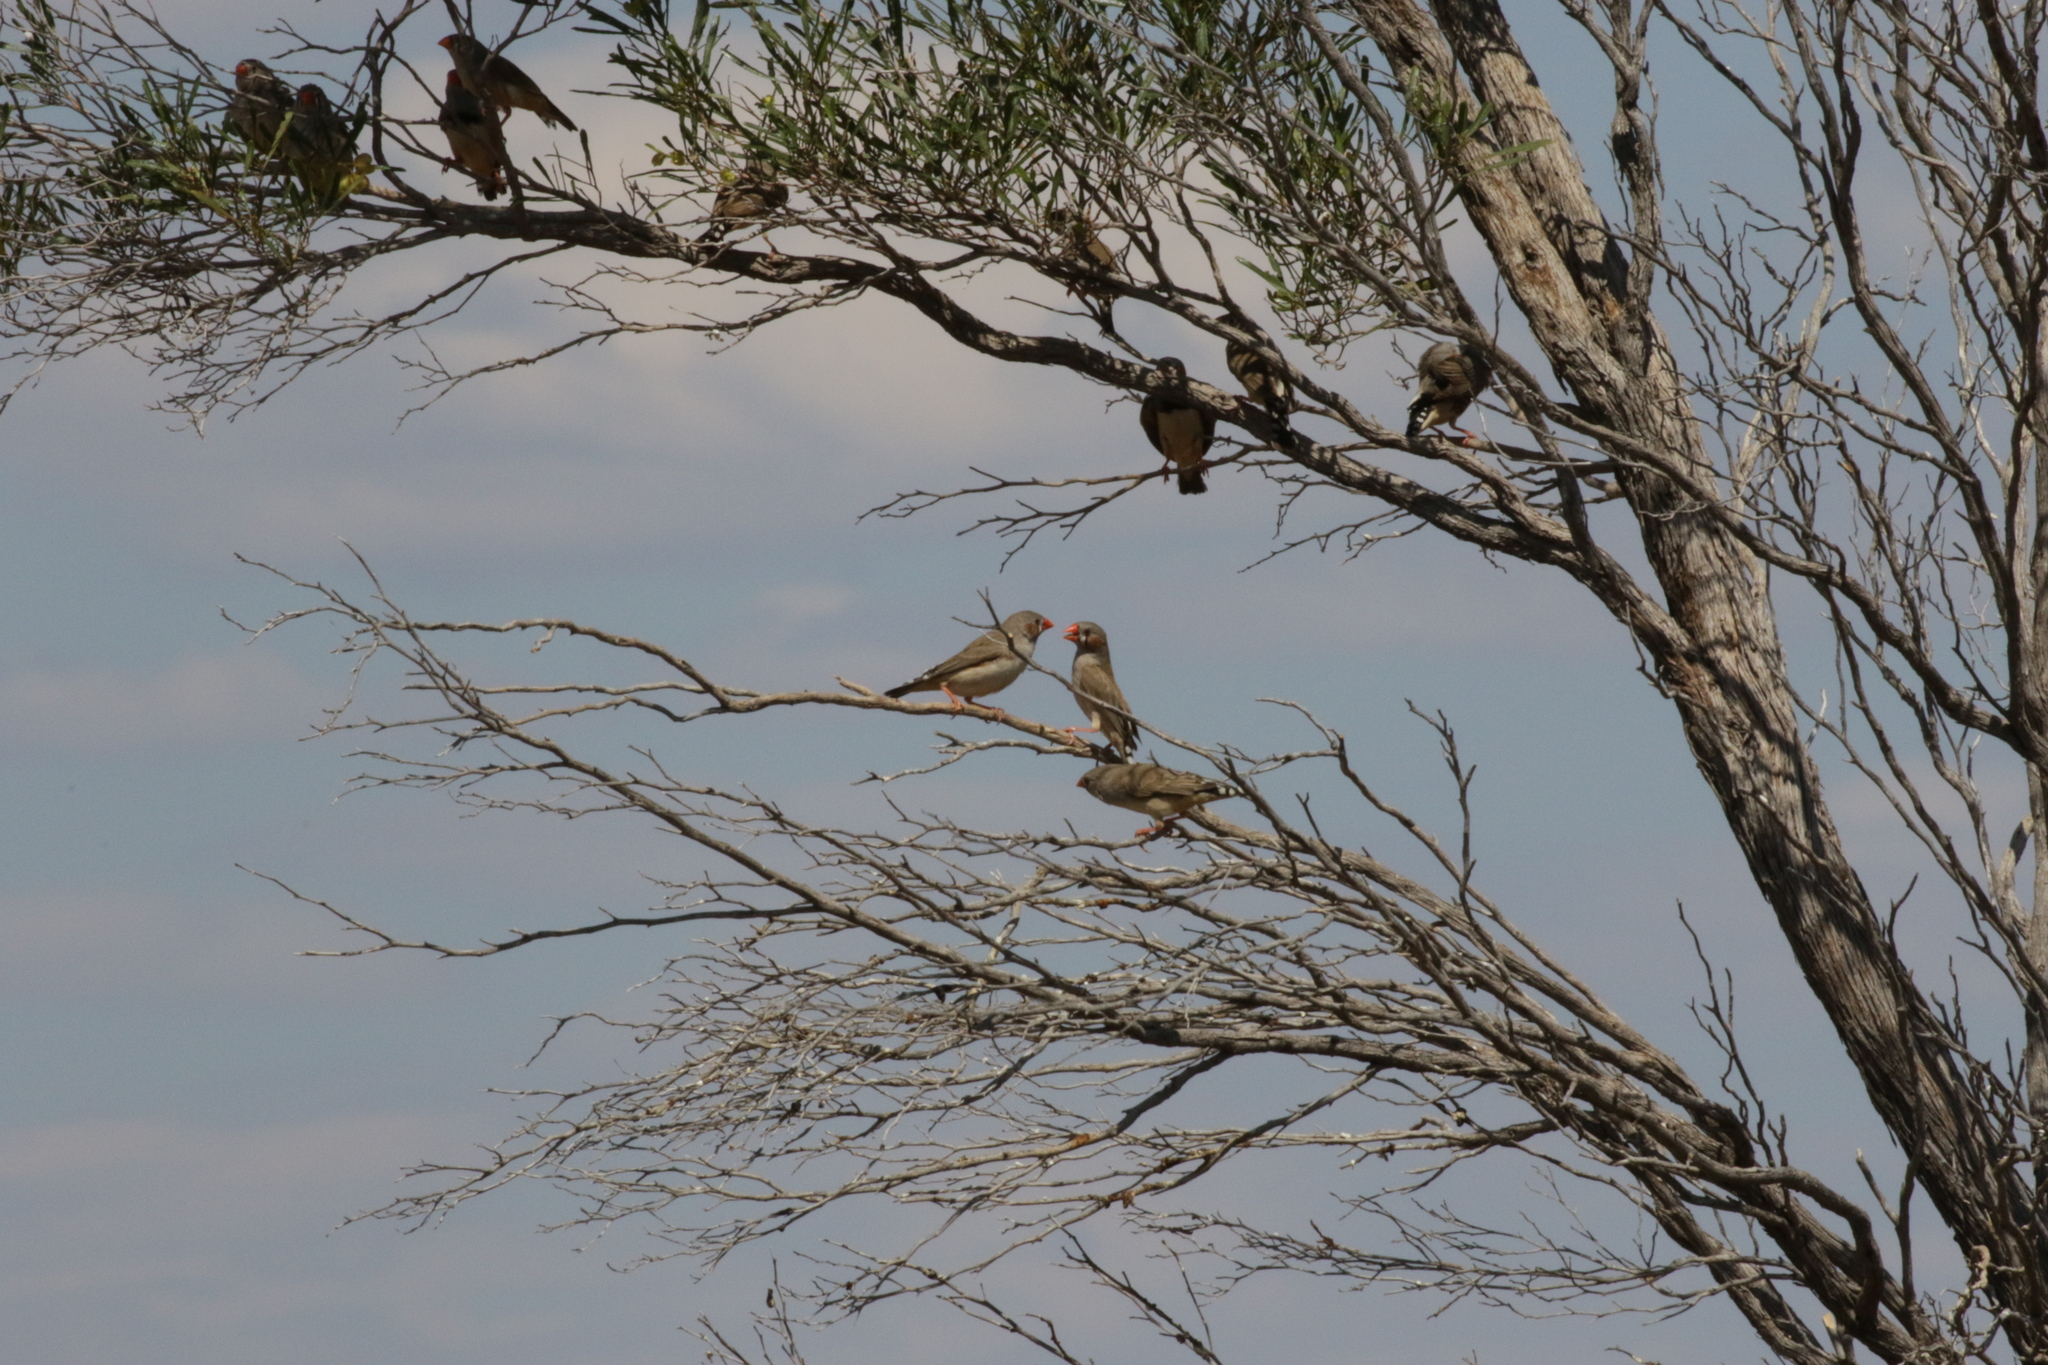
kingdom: Animalia
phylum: Chordata
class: Aves
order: Passeriformes
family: Estrildidae
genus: Taeniopygia
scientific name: Taeniopygia guttata
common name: Zebra finch
